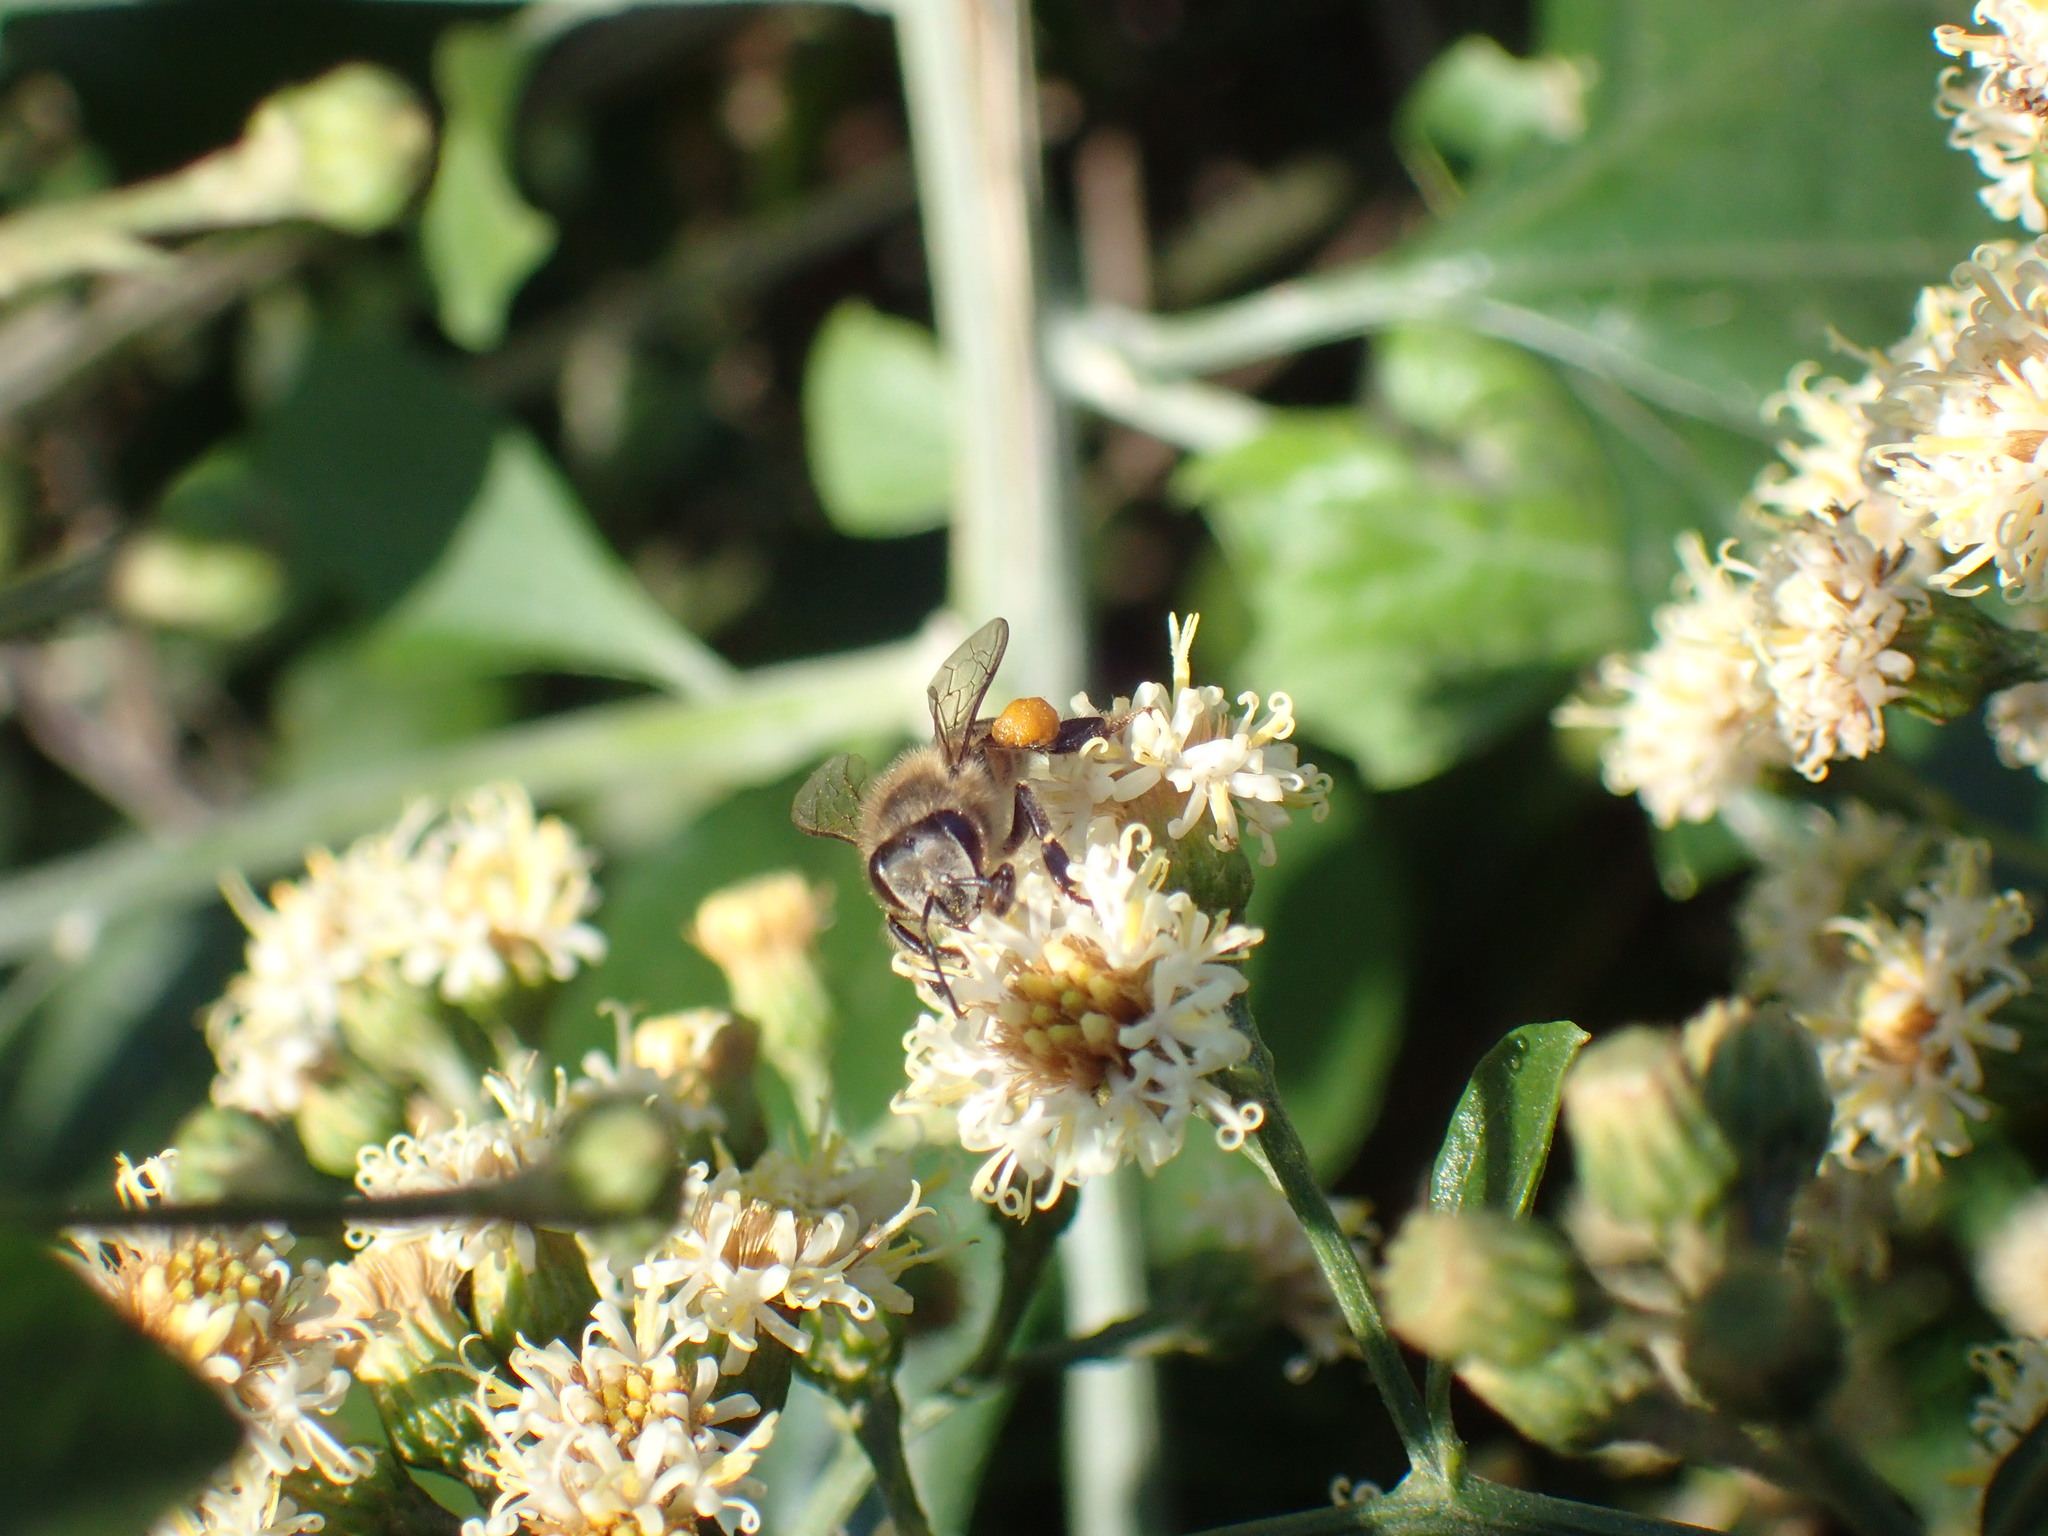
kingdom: Animalia
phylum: Arthropoda
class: Insecta
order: Hymenoptera
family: Apidae
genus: Apis
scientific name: Apis mellifera
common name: Honey bee
